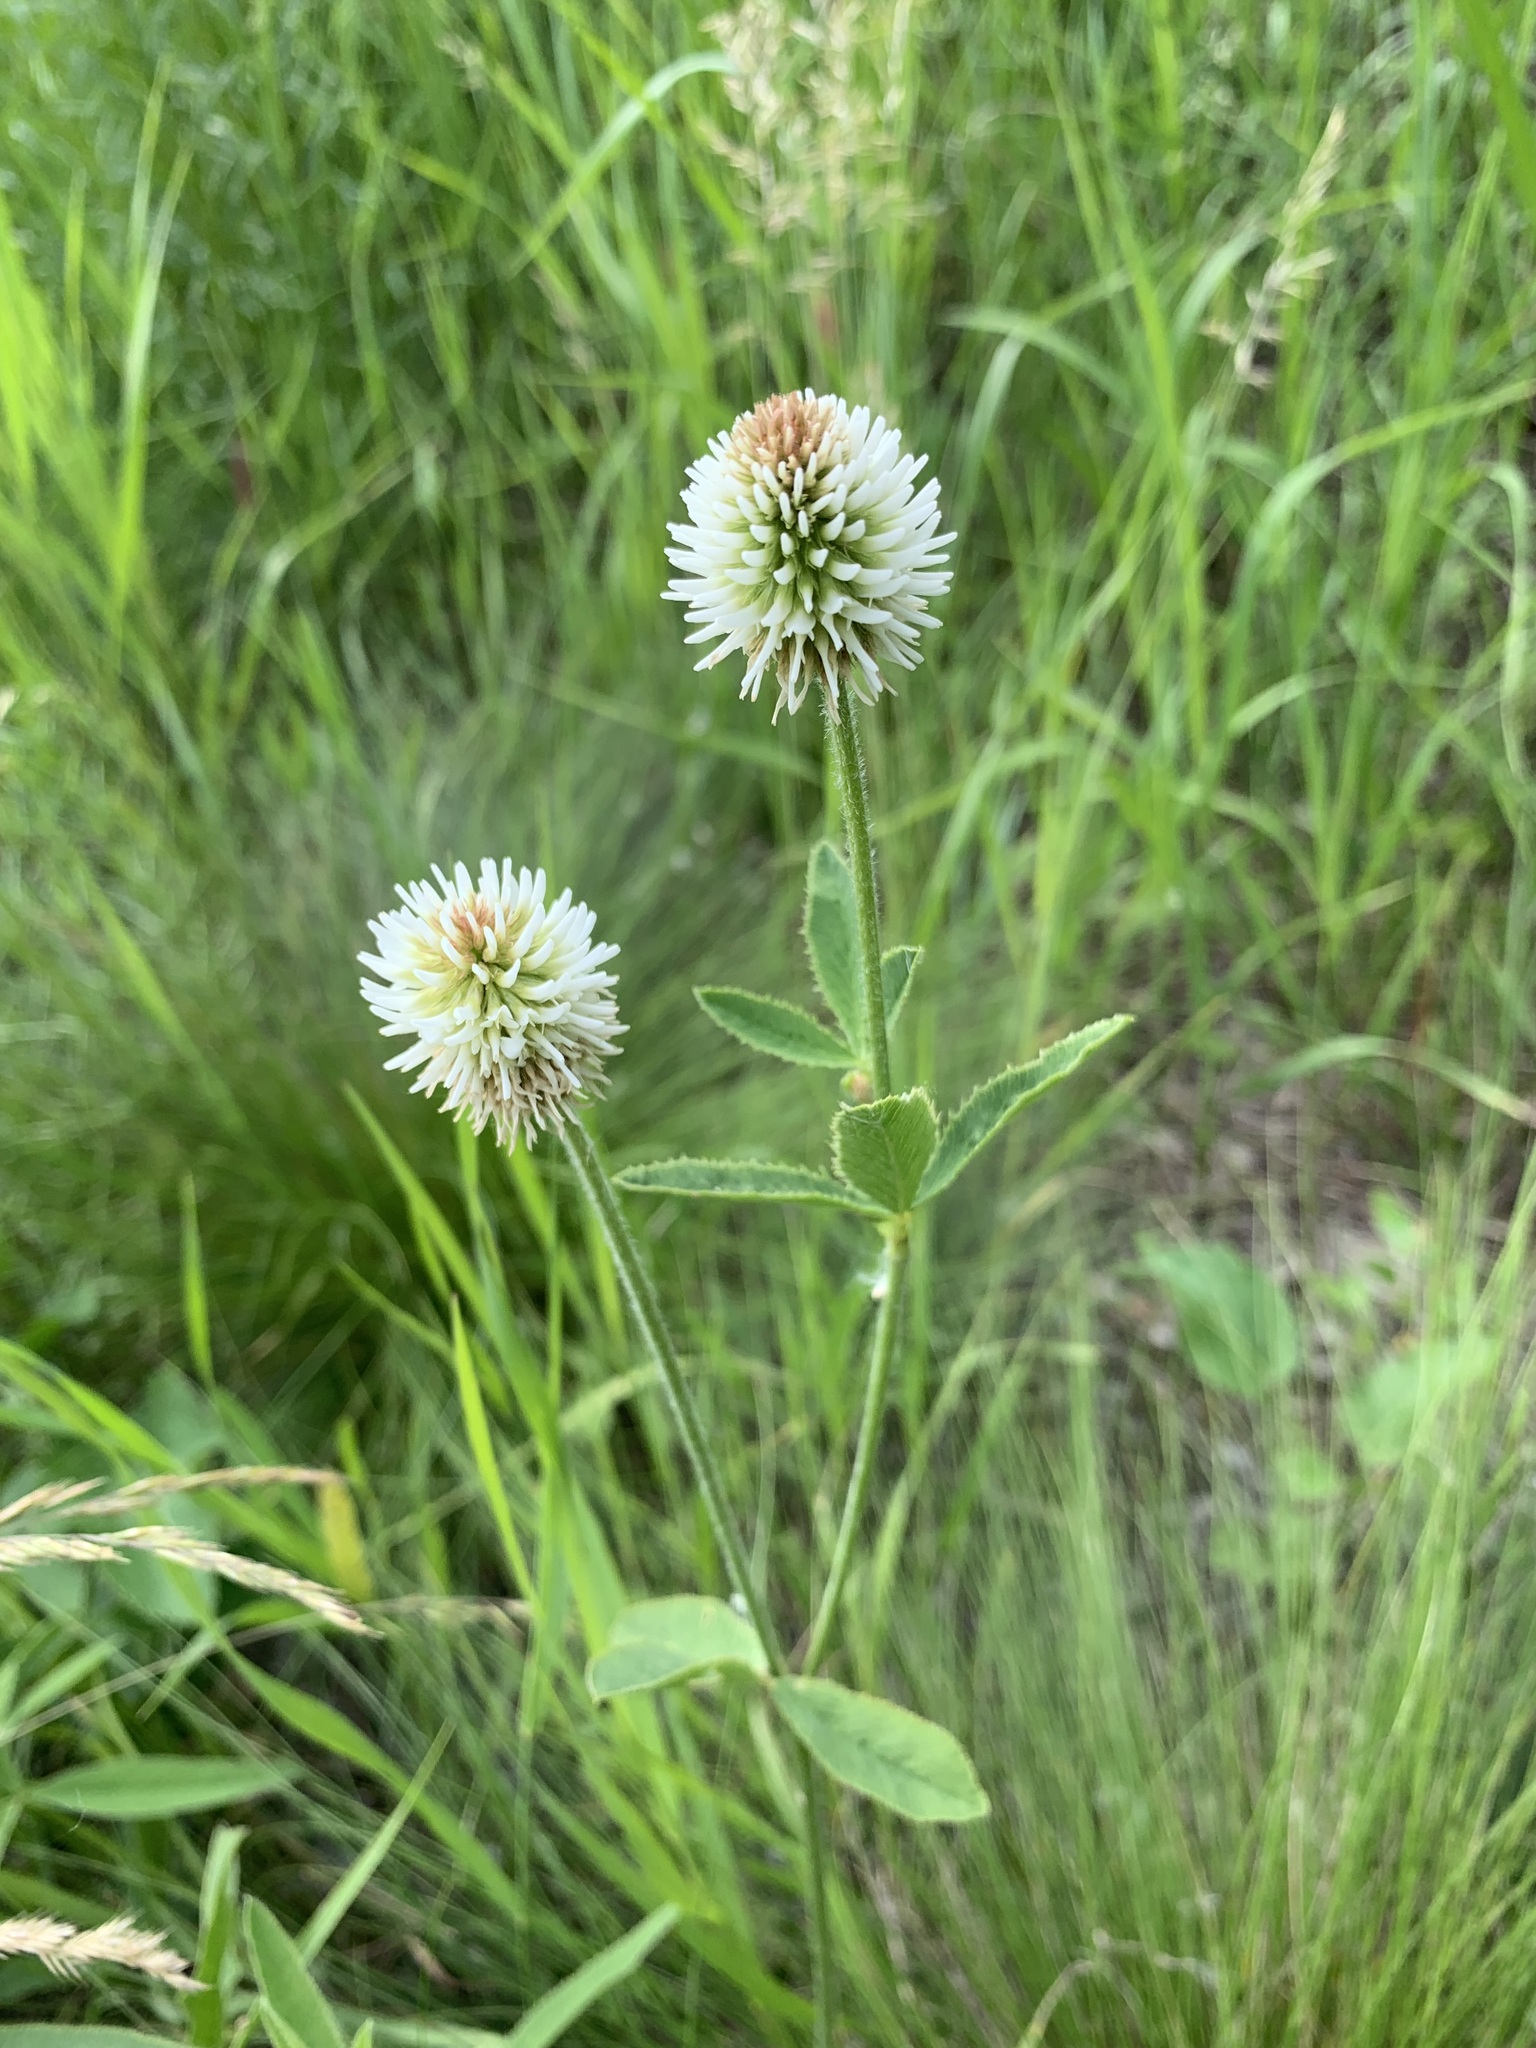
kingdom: Plantae
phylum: Tracheophyta
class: Magnoliopsida
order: Fabales
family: Fabaceae
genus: Trifolium
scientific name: Trifolium montanum
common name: Mountain clover
